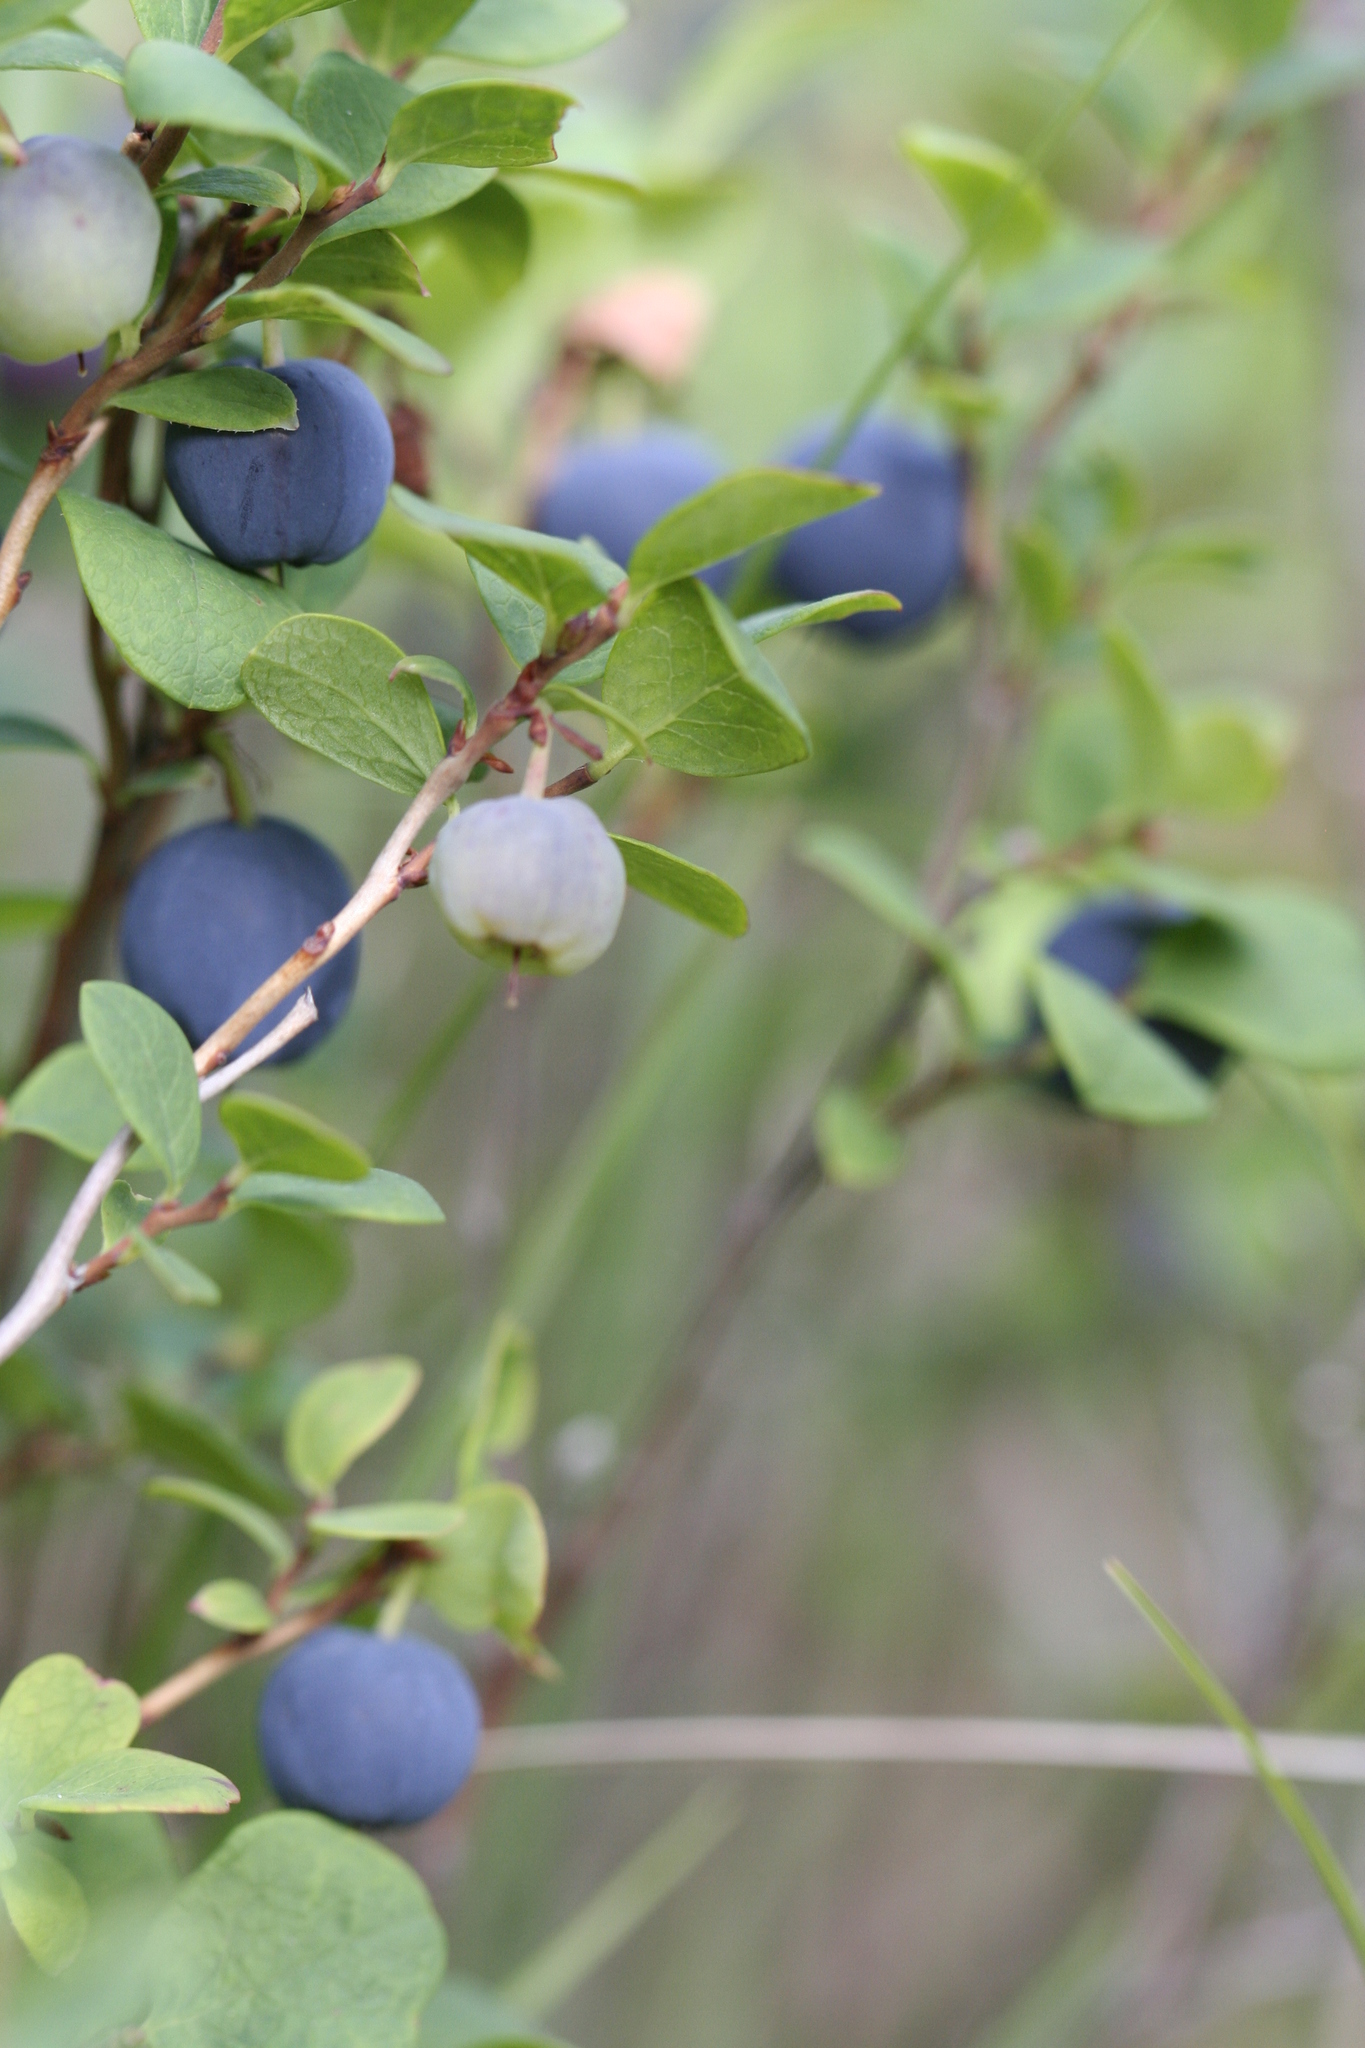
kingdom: Plantae
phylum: Tracheophyta
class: Magnoliopsida
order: Ericales
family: Ericaceae
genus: Vaccinium
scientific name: Vaccinium uliginosum
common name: Bog bilberry
